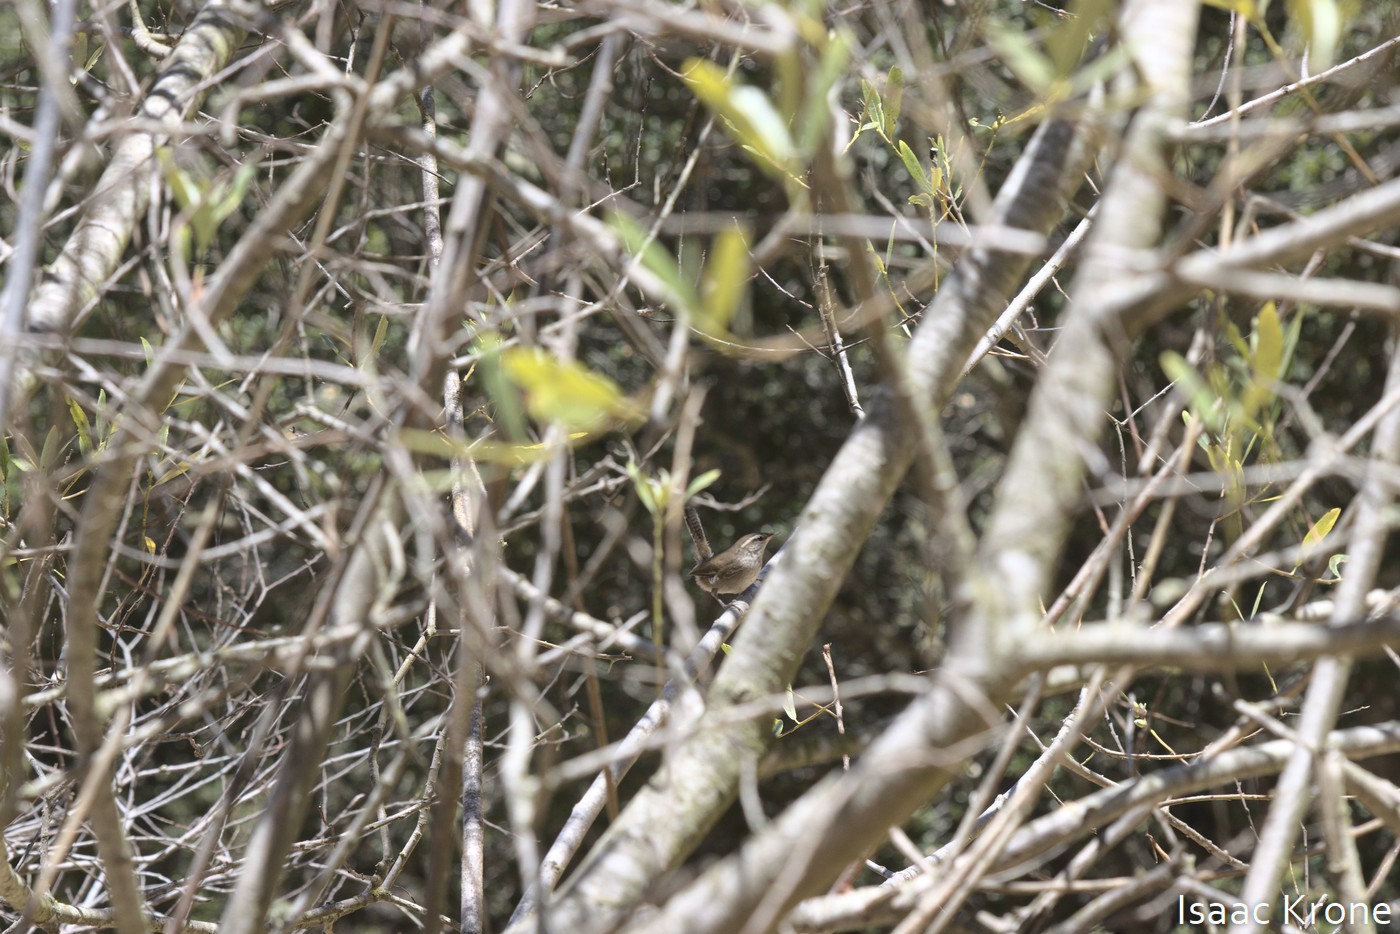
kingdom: Animalia
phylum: Chordata
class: Aves
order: Passeriformes
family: Troglodytidae
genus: Thryomanes
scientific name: Thryomanes bewickii
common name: Bewick's wren
